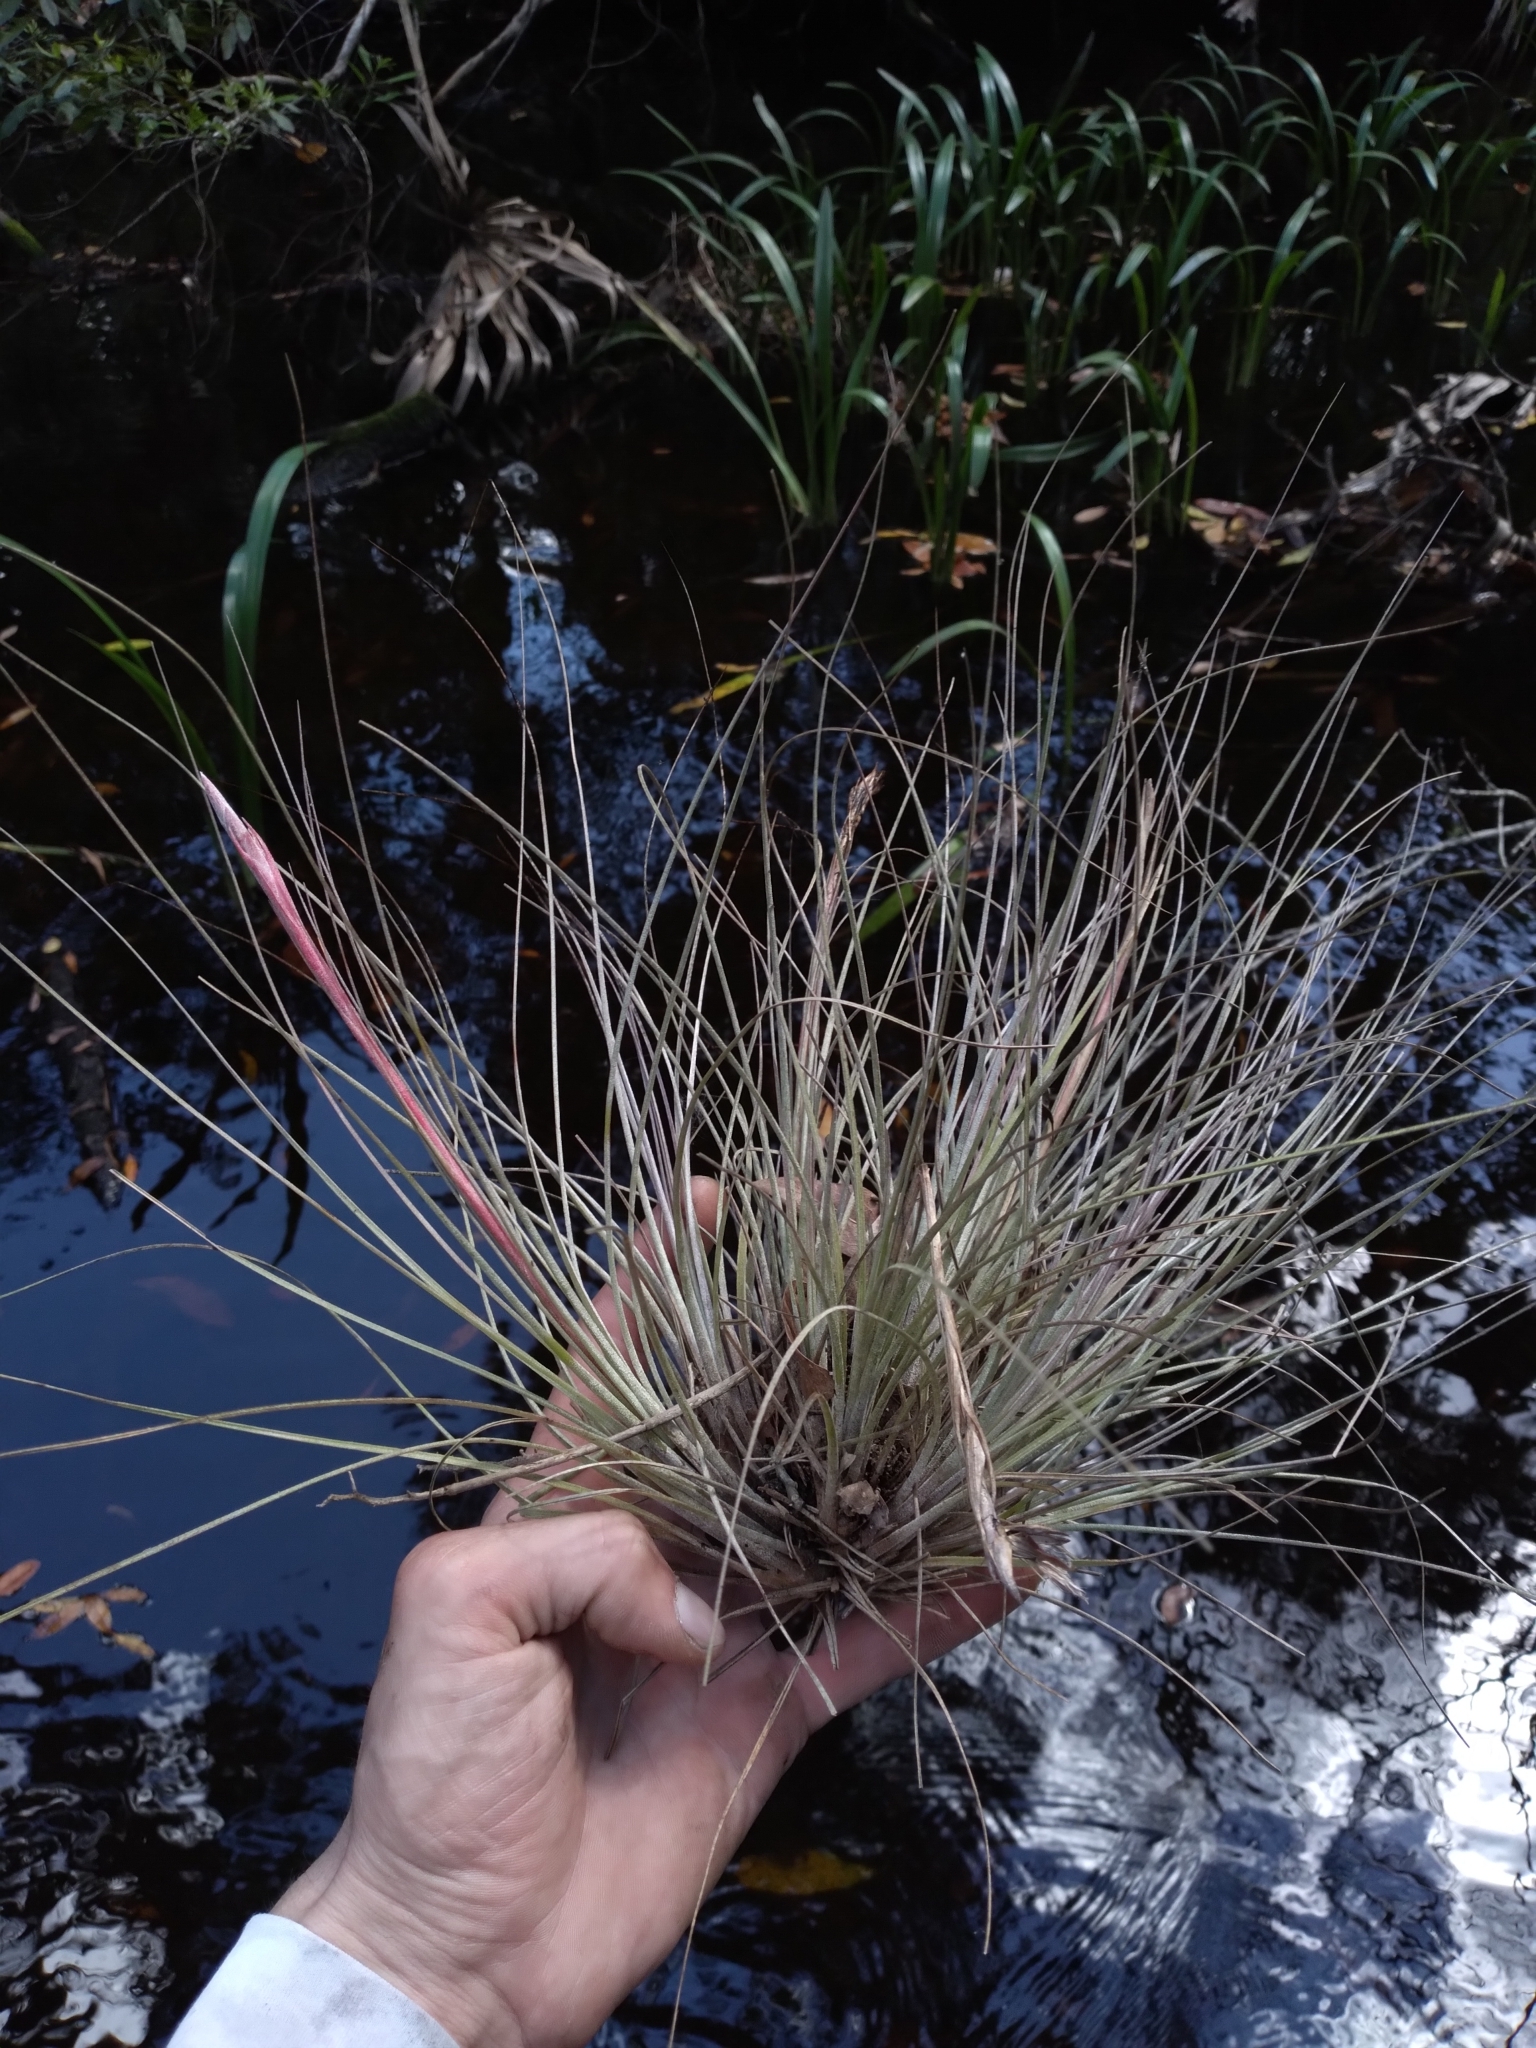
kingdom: Plantae
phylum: Tracheophyta
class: Liliopsida
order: Poales
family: Bromeliaceae
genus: Tillandsia
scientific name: Tillandsia bartramii
